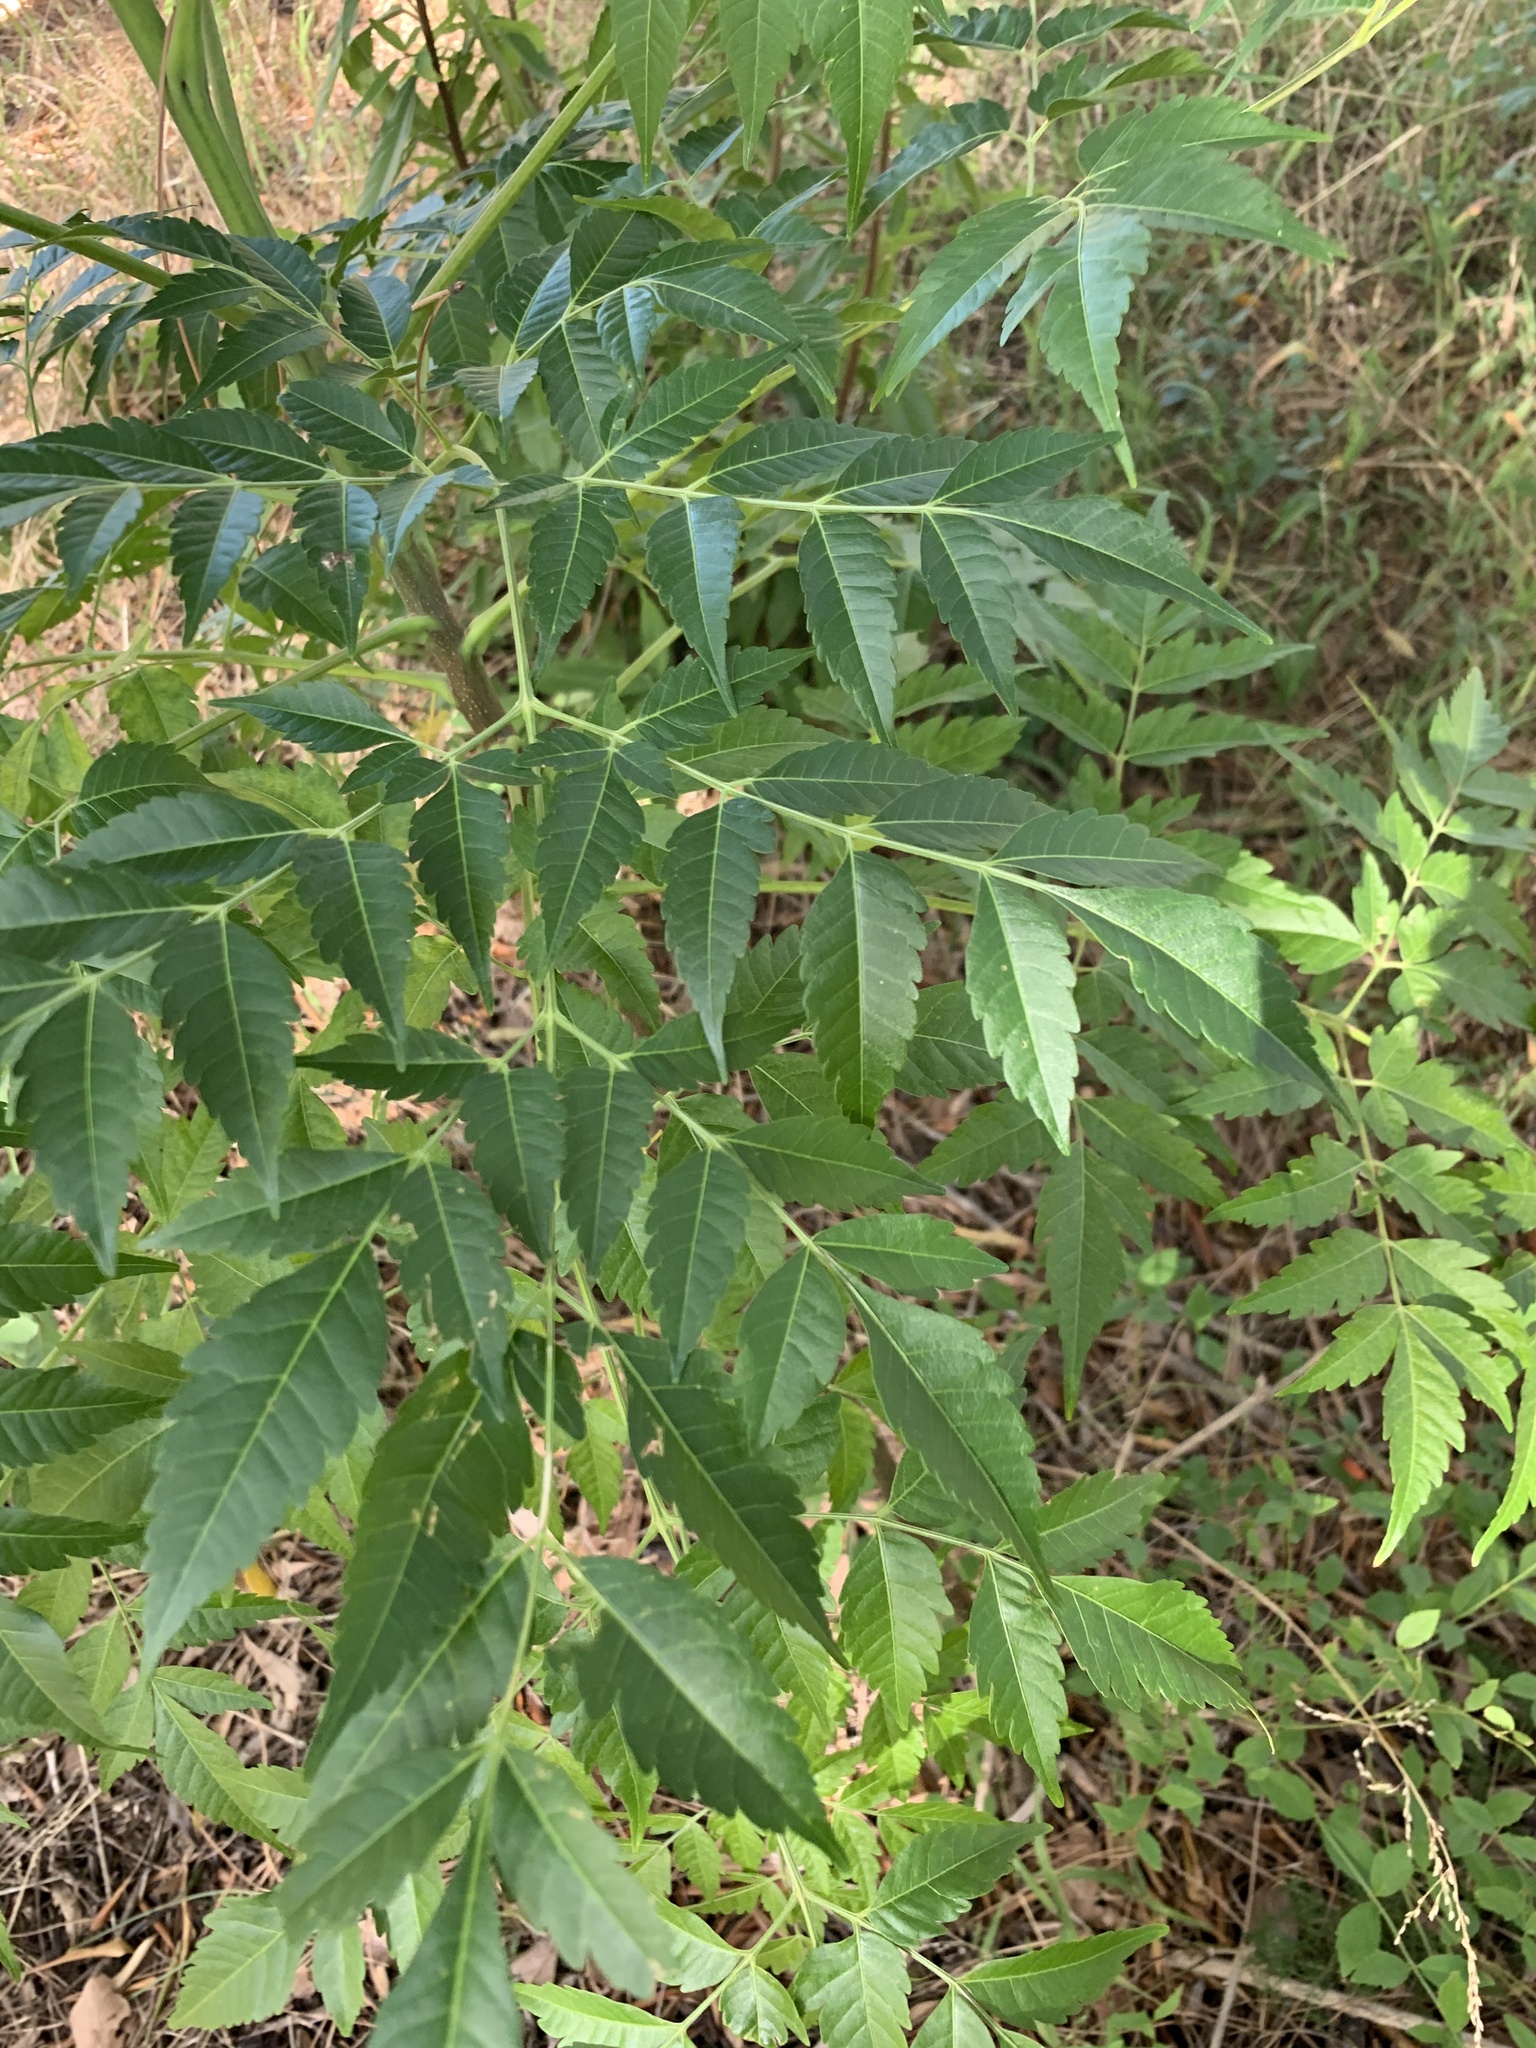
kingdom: Plantae
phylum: Tracheophyta
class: Magnoliopsida
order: Sapindales
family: Meliaceae
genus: Melia
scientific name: Melia azedarach
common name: Chinaberrytree
